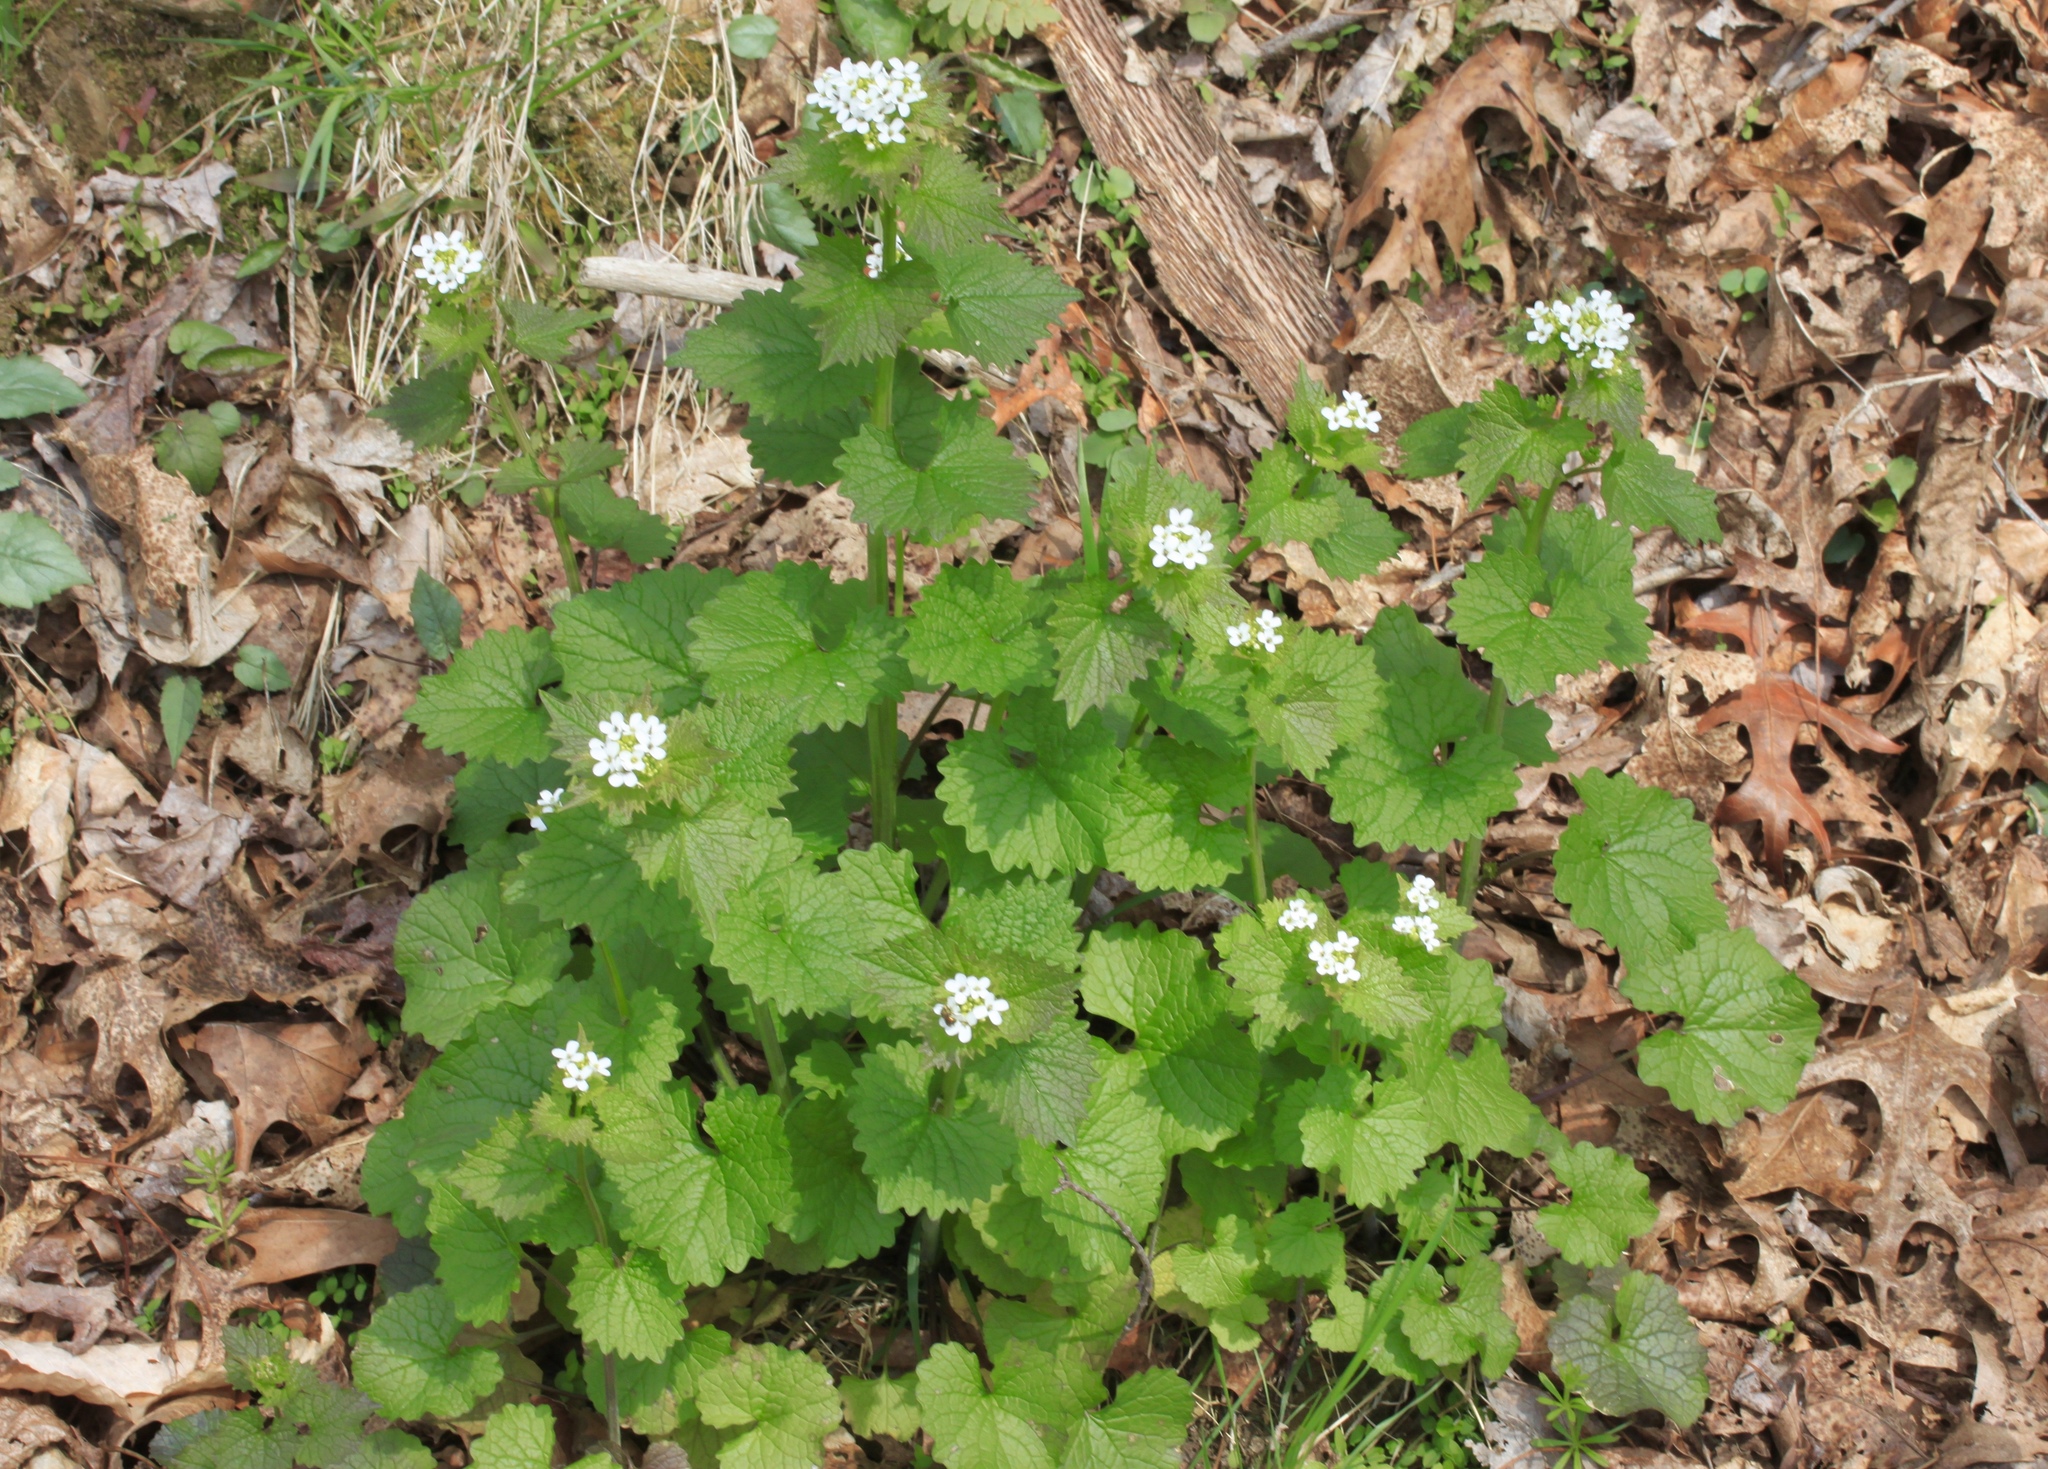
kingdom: Plantae
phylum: Tracheophyta
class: Magnoliopsida
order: Brassicales
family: Brassicaceae
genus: Alliaria
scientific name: Alliaria petiolata
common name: Garlic mustard
